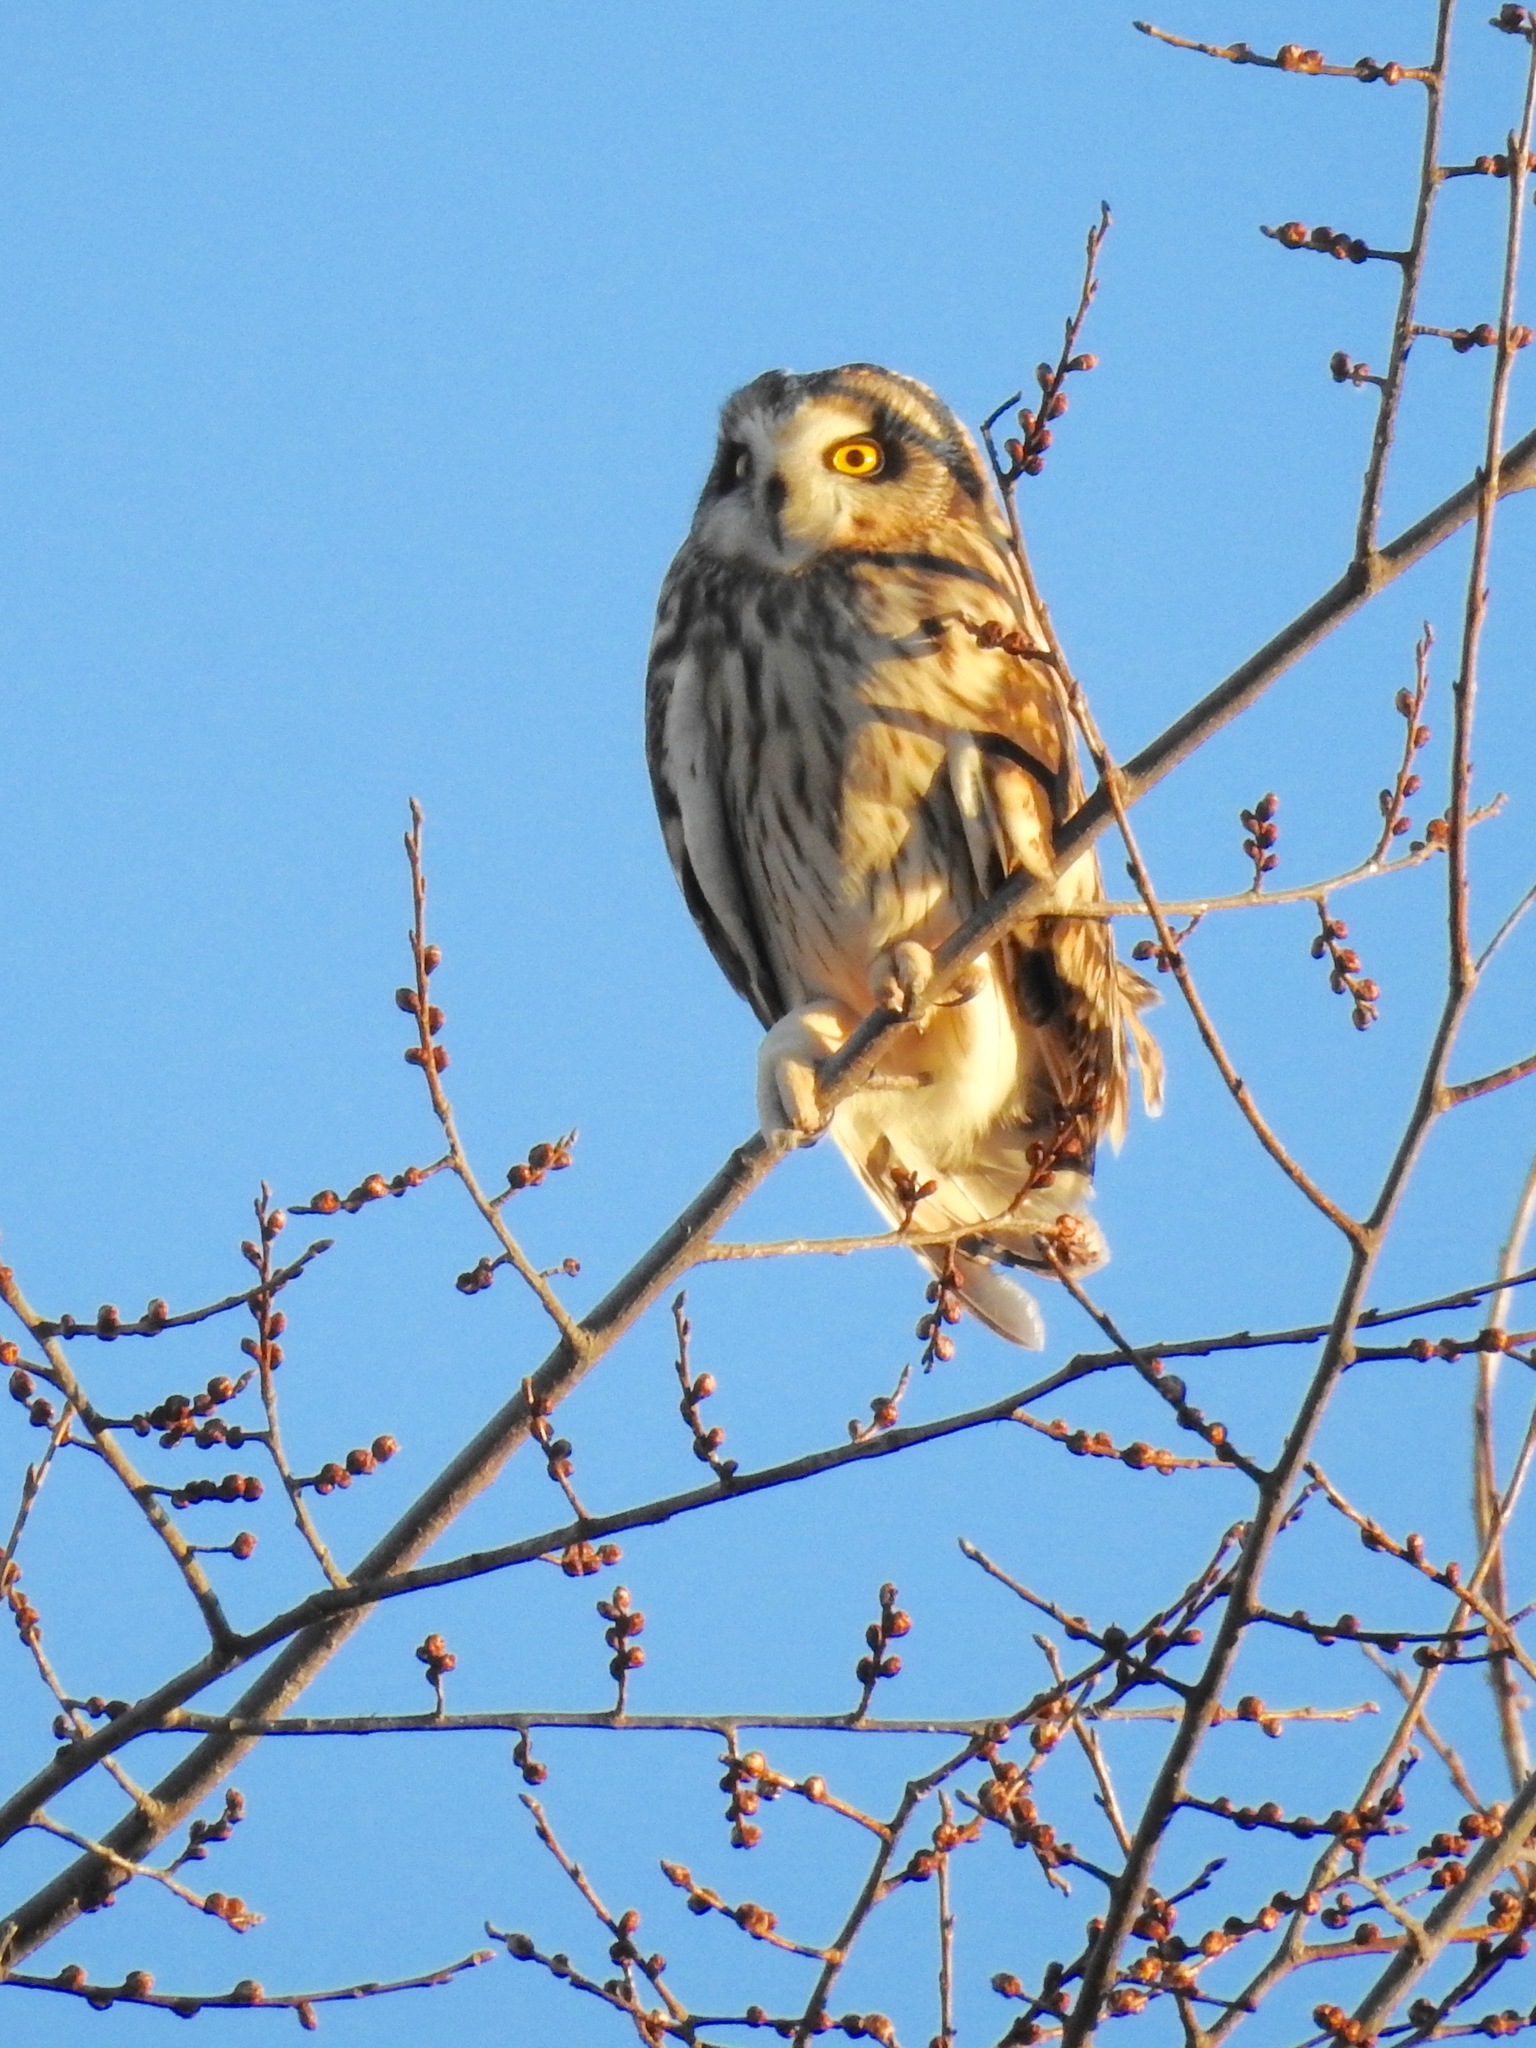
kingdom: Animalia
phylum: Chordata
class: Aves
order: Strigiformes
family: Strigidae
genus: Asio
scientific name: Asio flammeus
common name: Short-eared owl
